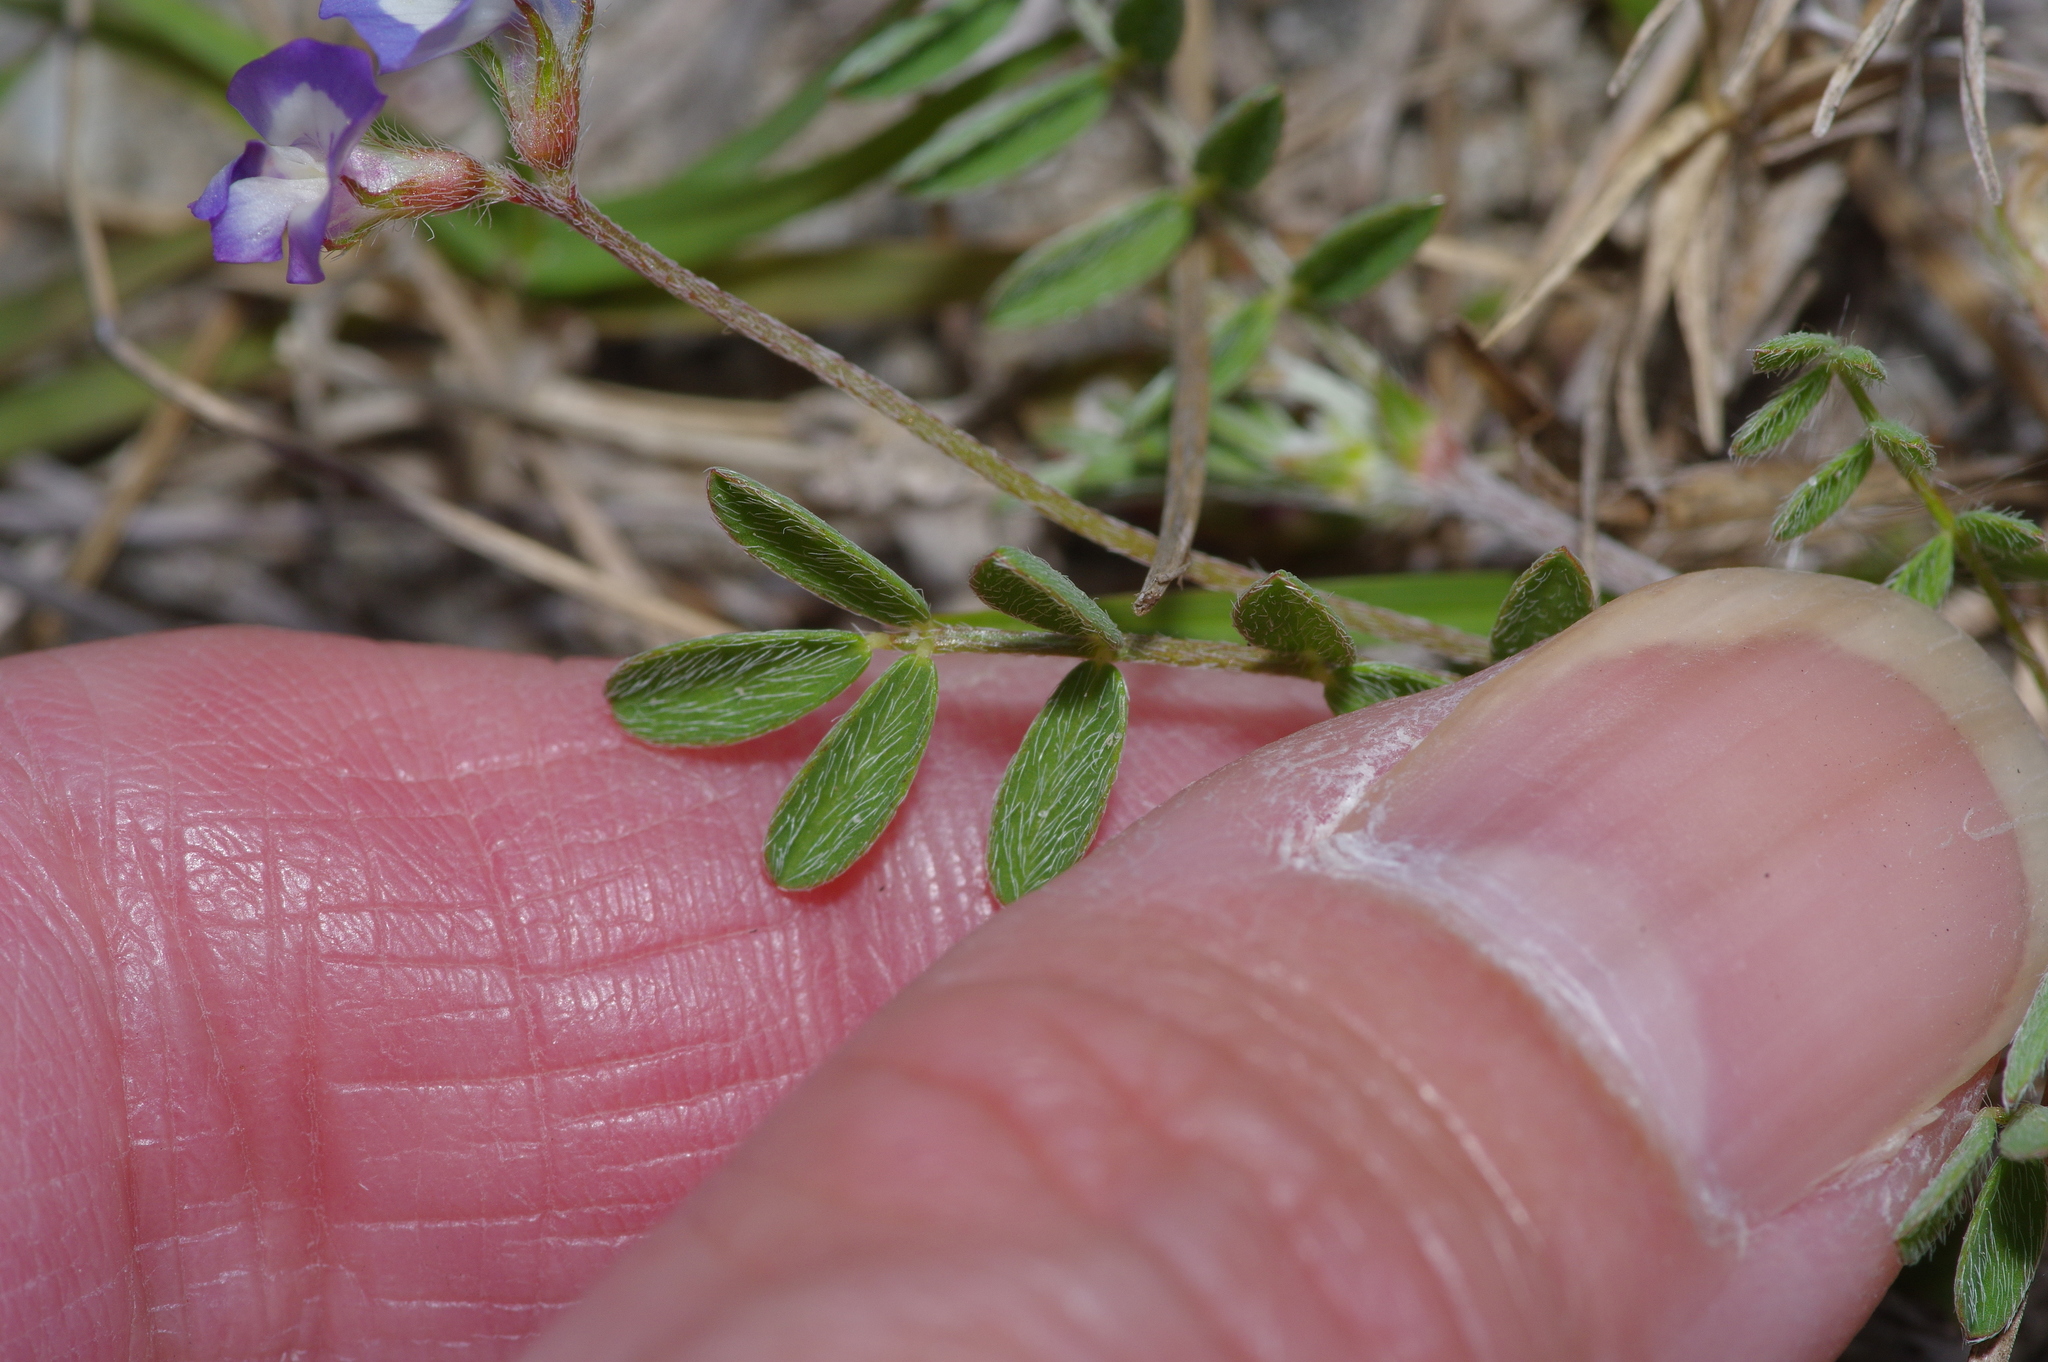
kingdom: Plantae
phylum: Tracheophyta
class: Magnoliopsida
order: Fabales
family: Fabaceae
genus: Astragalus
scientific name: Astragalus nuttallianus
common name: Smallflowered milkvetch
